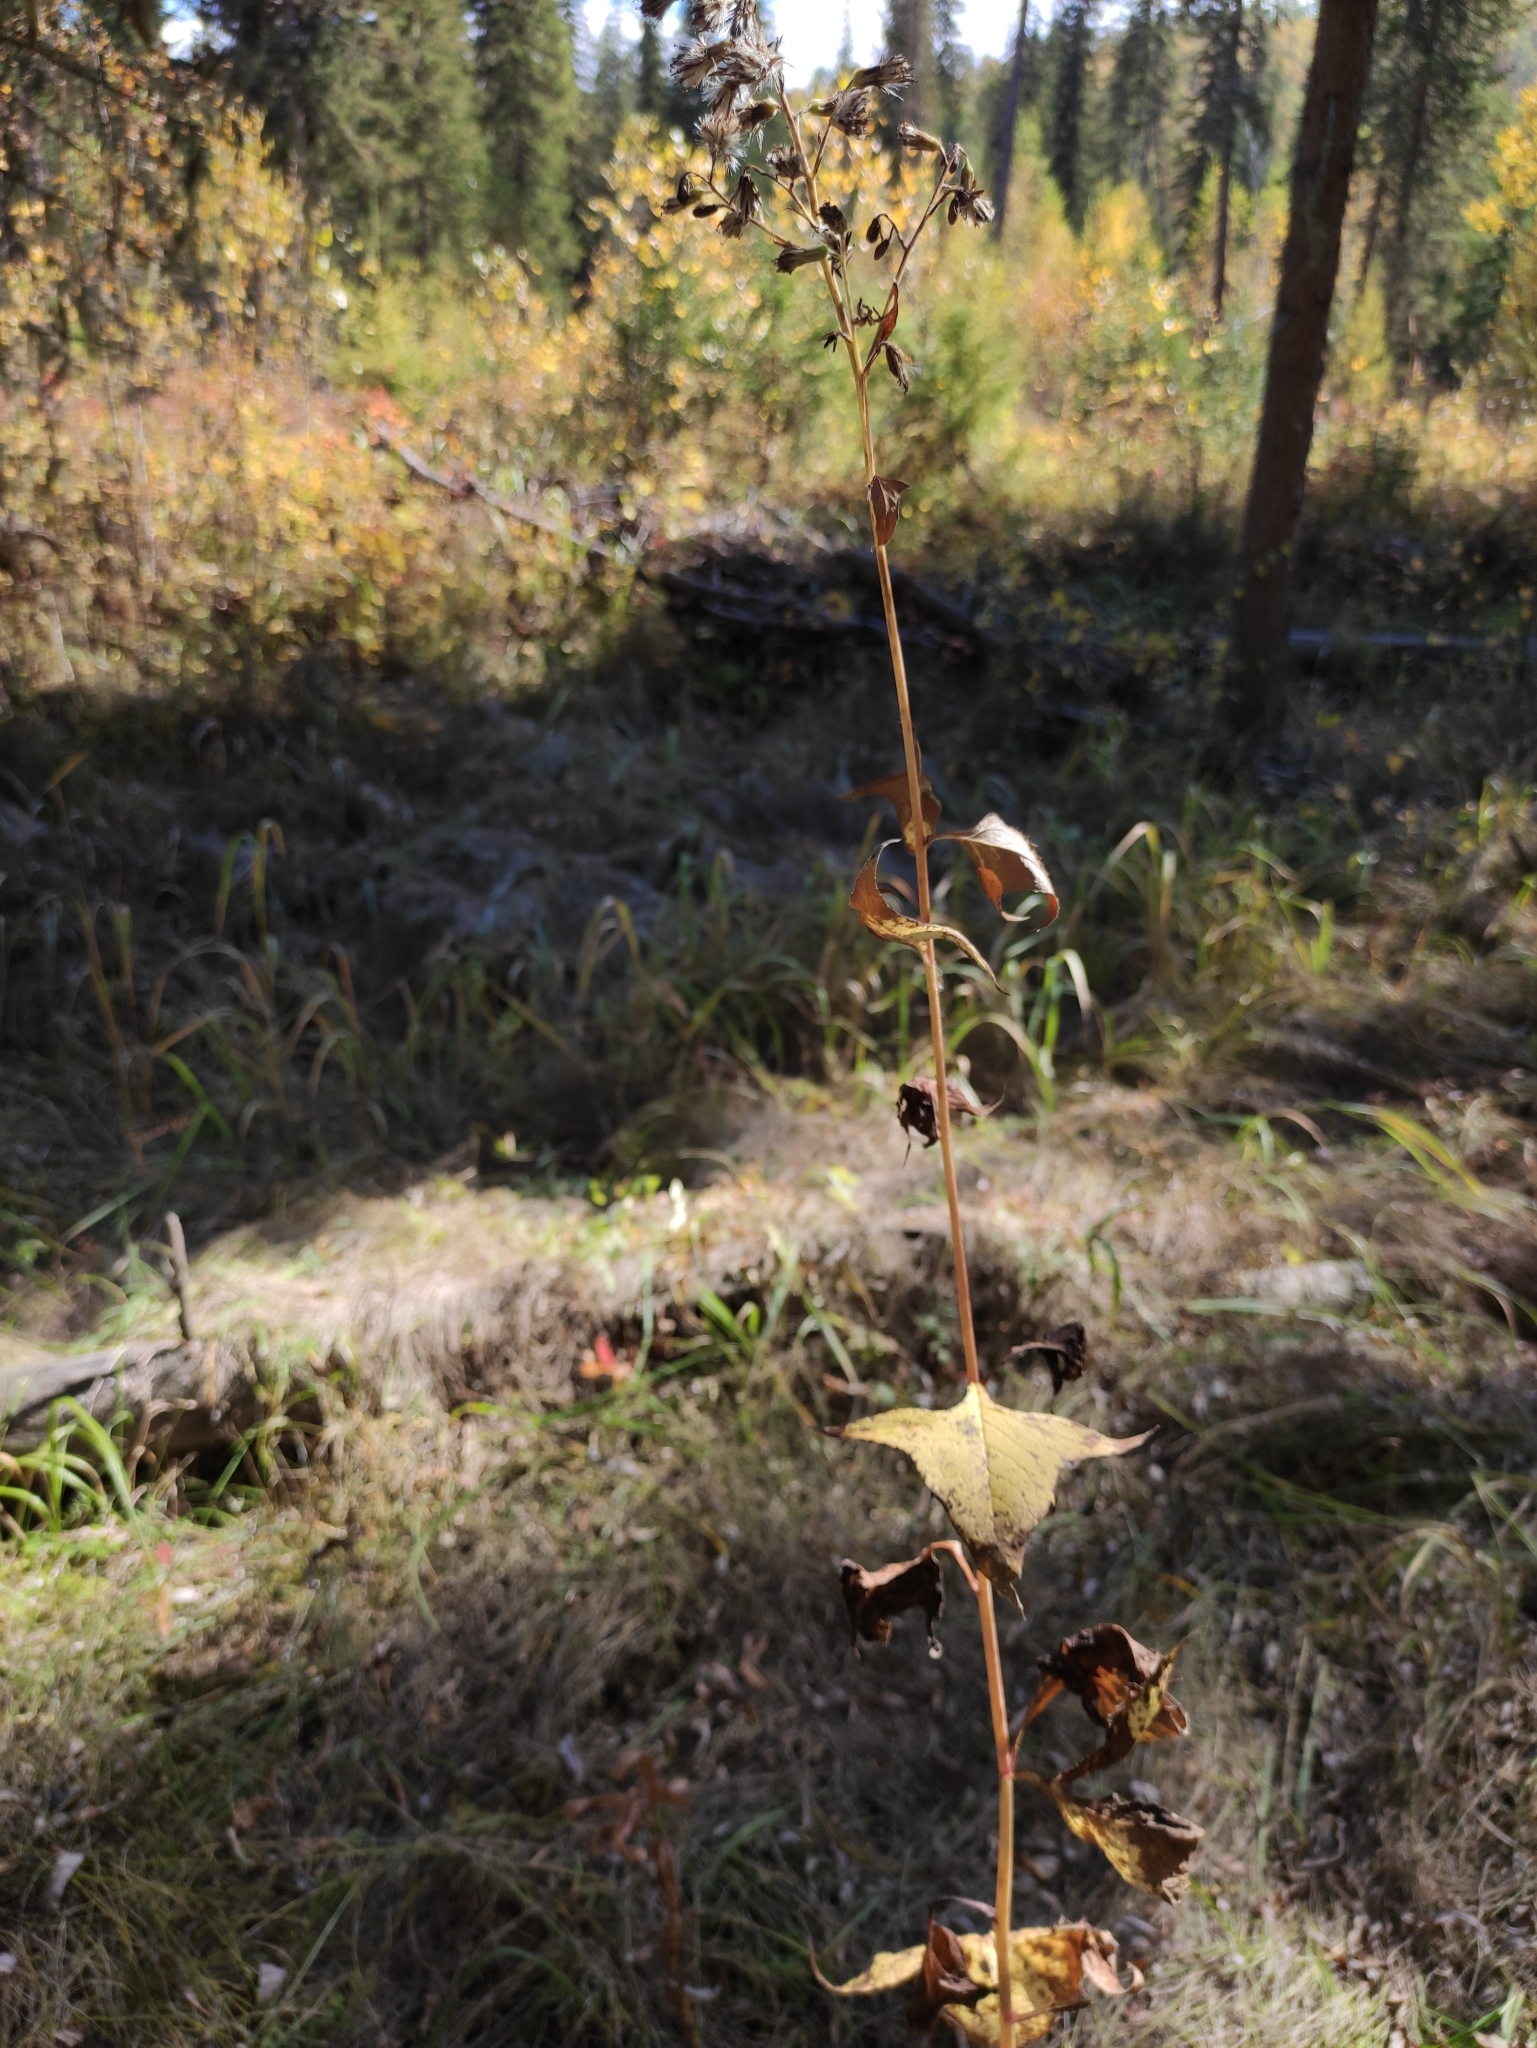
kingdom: Plantae
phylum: Tracheophyta
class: Magnoliopsida
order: Asterales
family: Asteraceae
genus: Parasenecio
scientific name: Parasenecio hastatus
